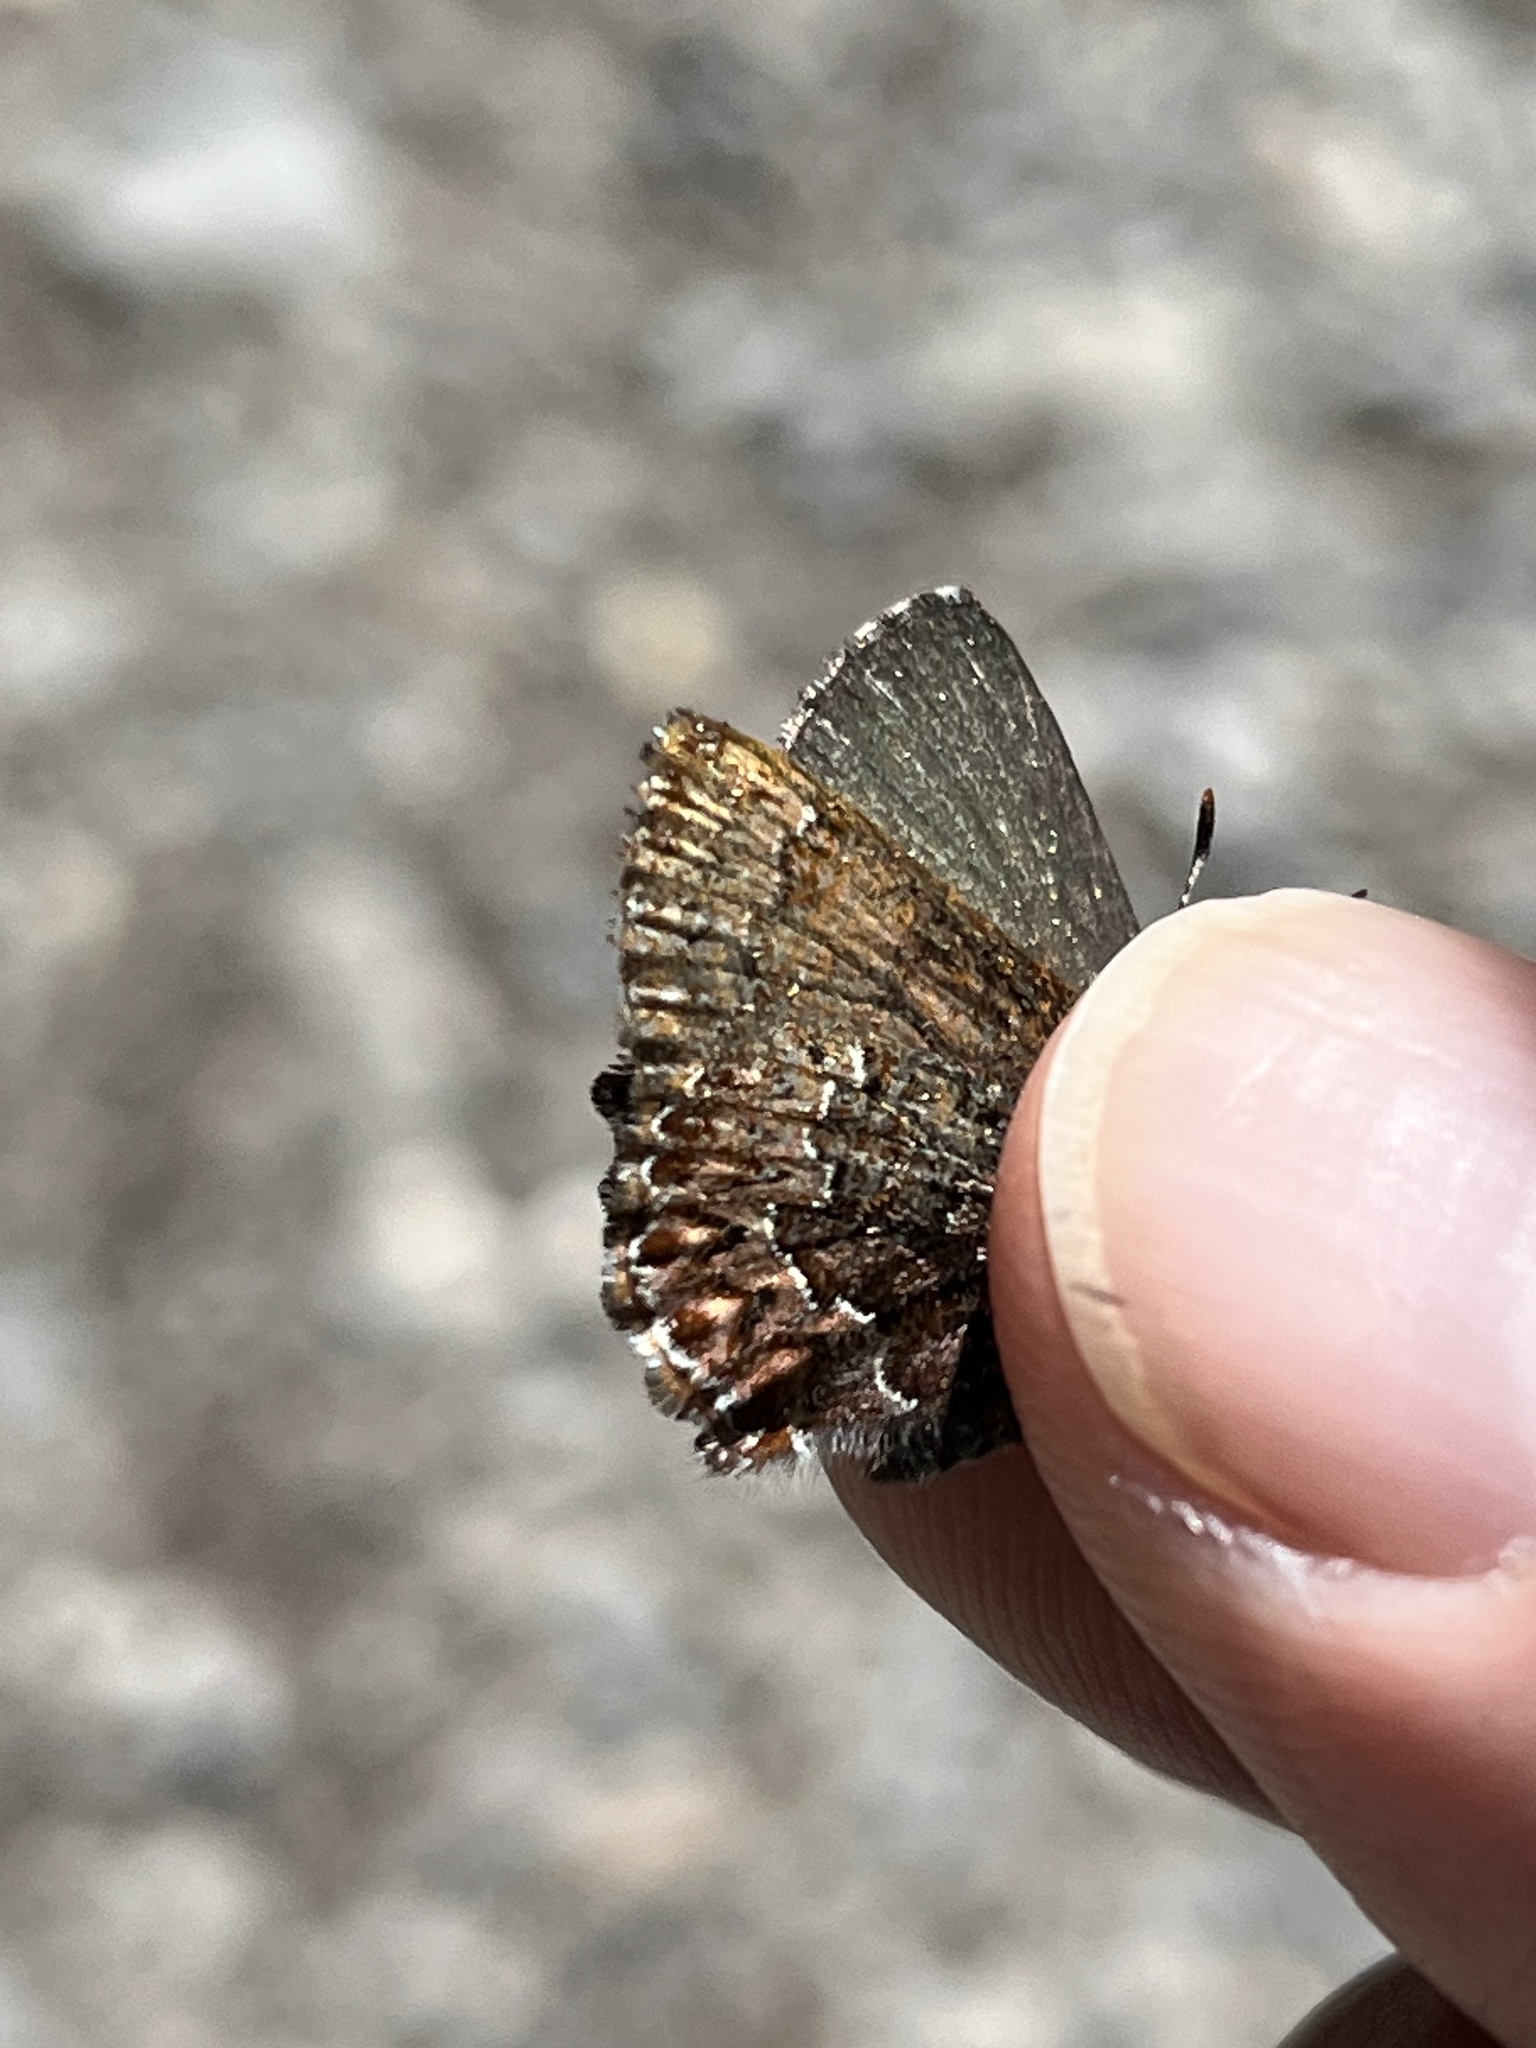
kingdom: Animalia
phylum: Arthropoda
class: Insecta
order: Lepidoptera
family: Lycaenidae
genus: Incisalia
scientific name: Incisalia eryphon
